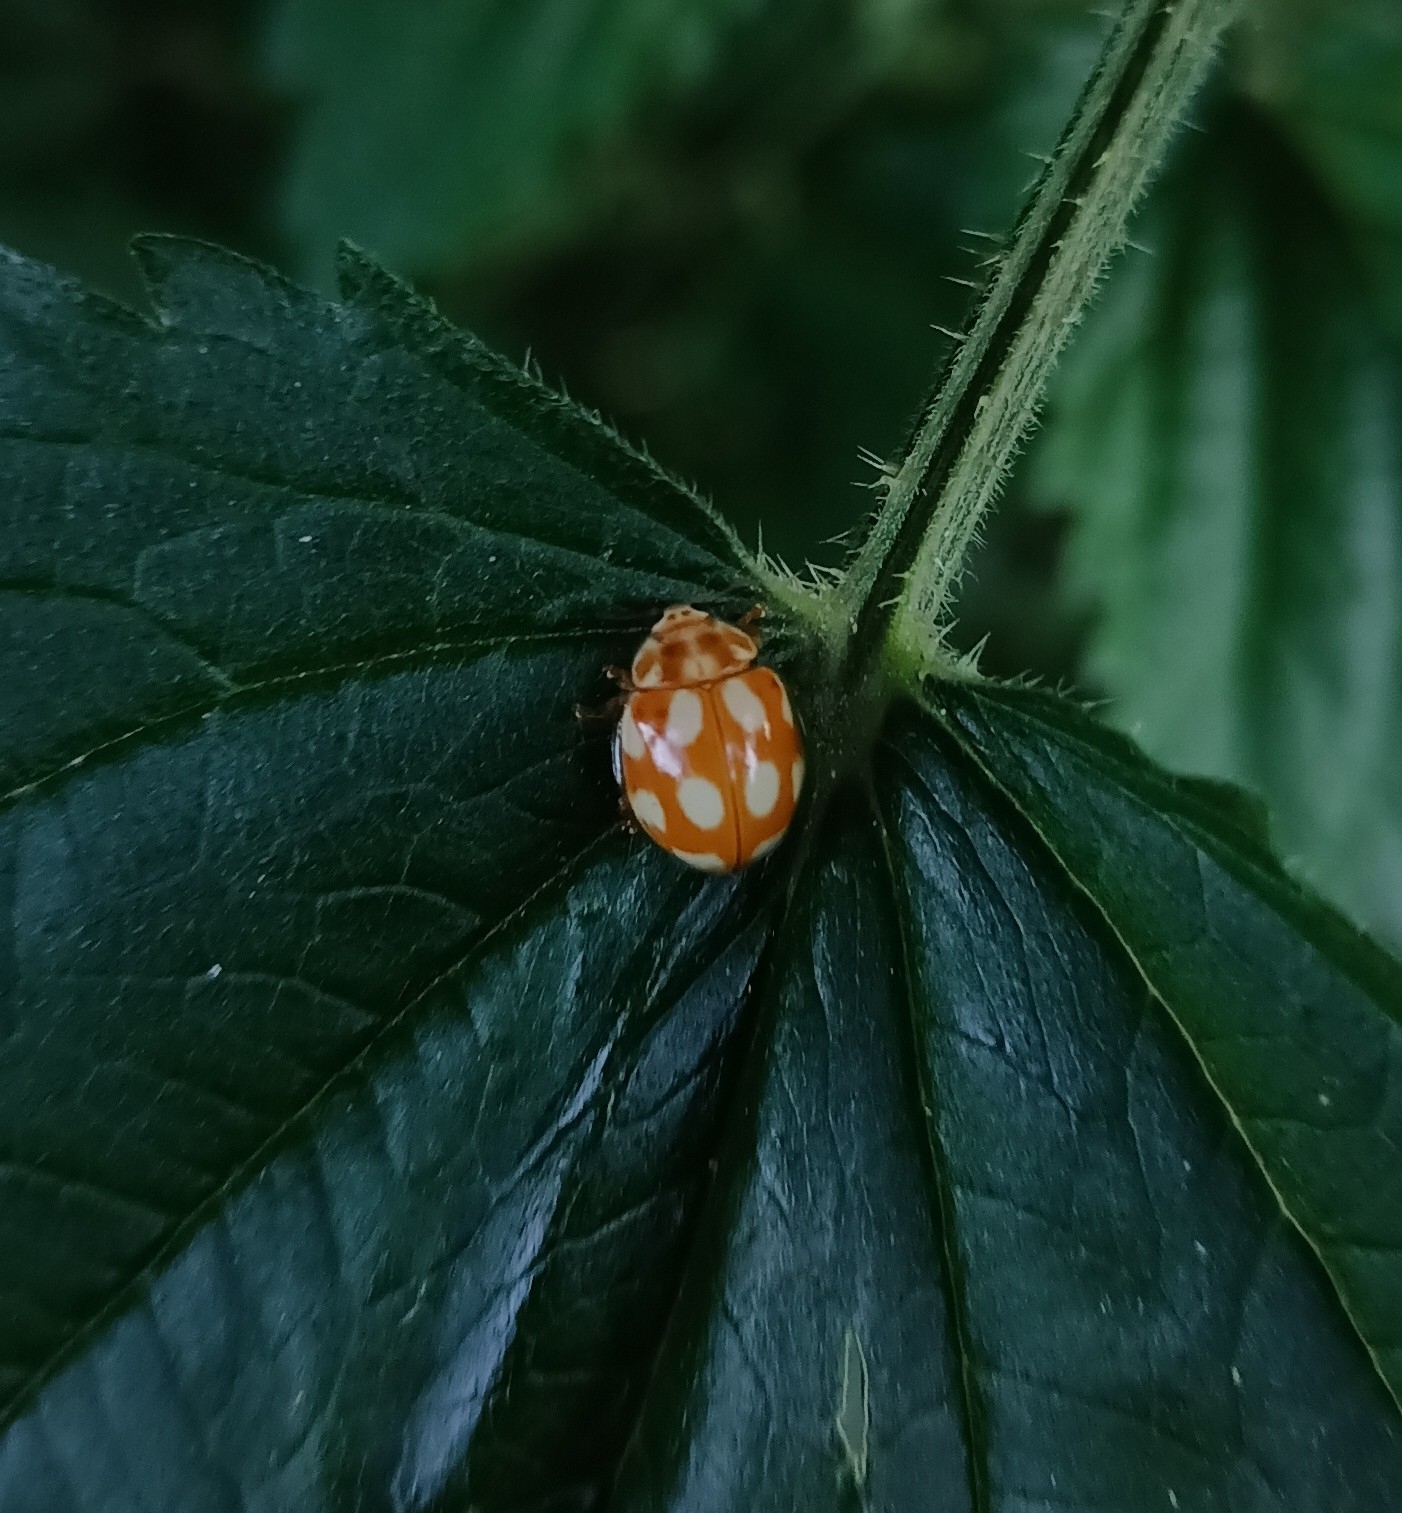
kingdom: Animalia
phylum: Arthropoda
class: Insecta
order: Coleoptera
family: Coccinellidae
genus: Calvia
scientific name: Calvia decemguttata
